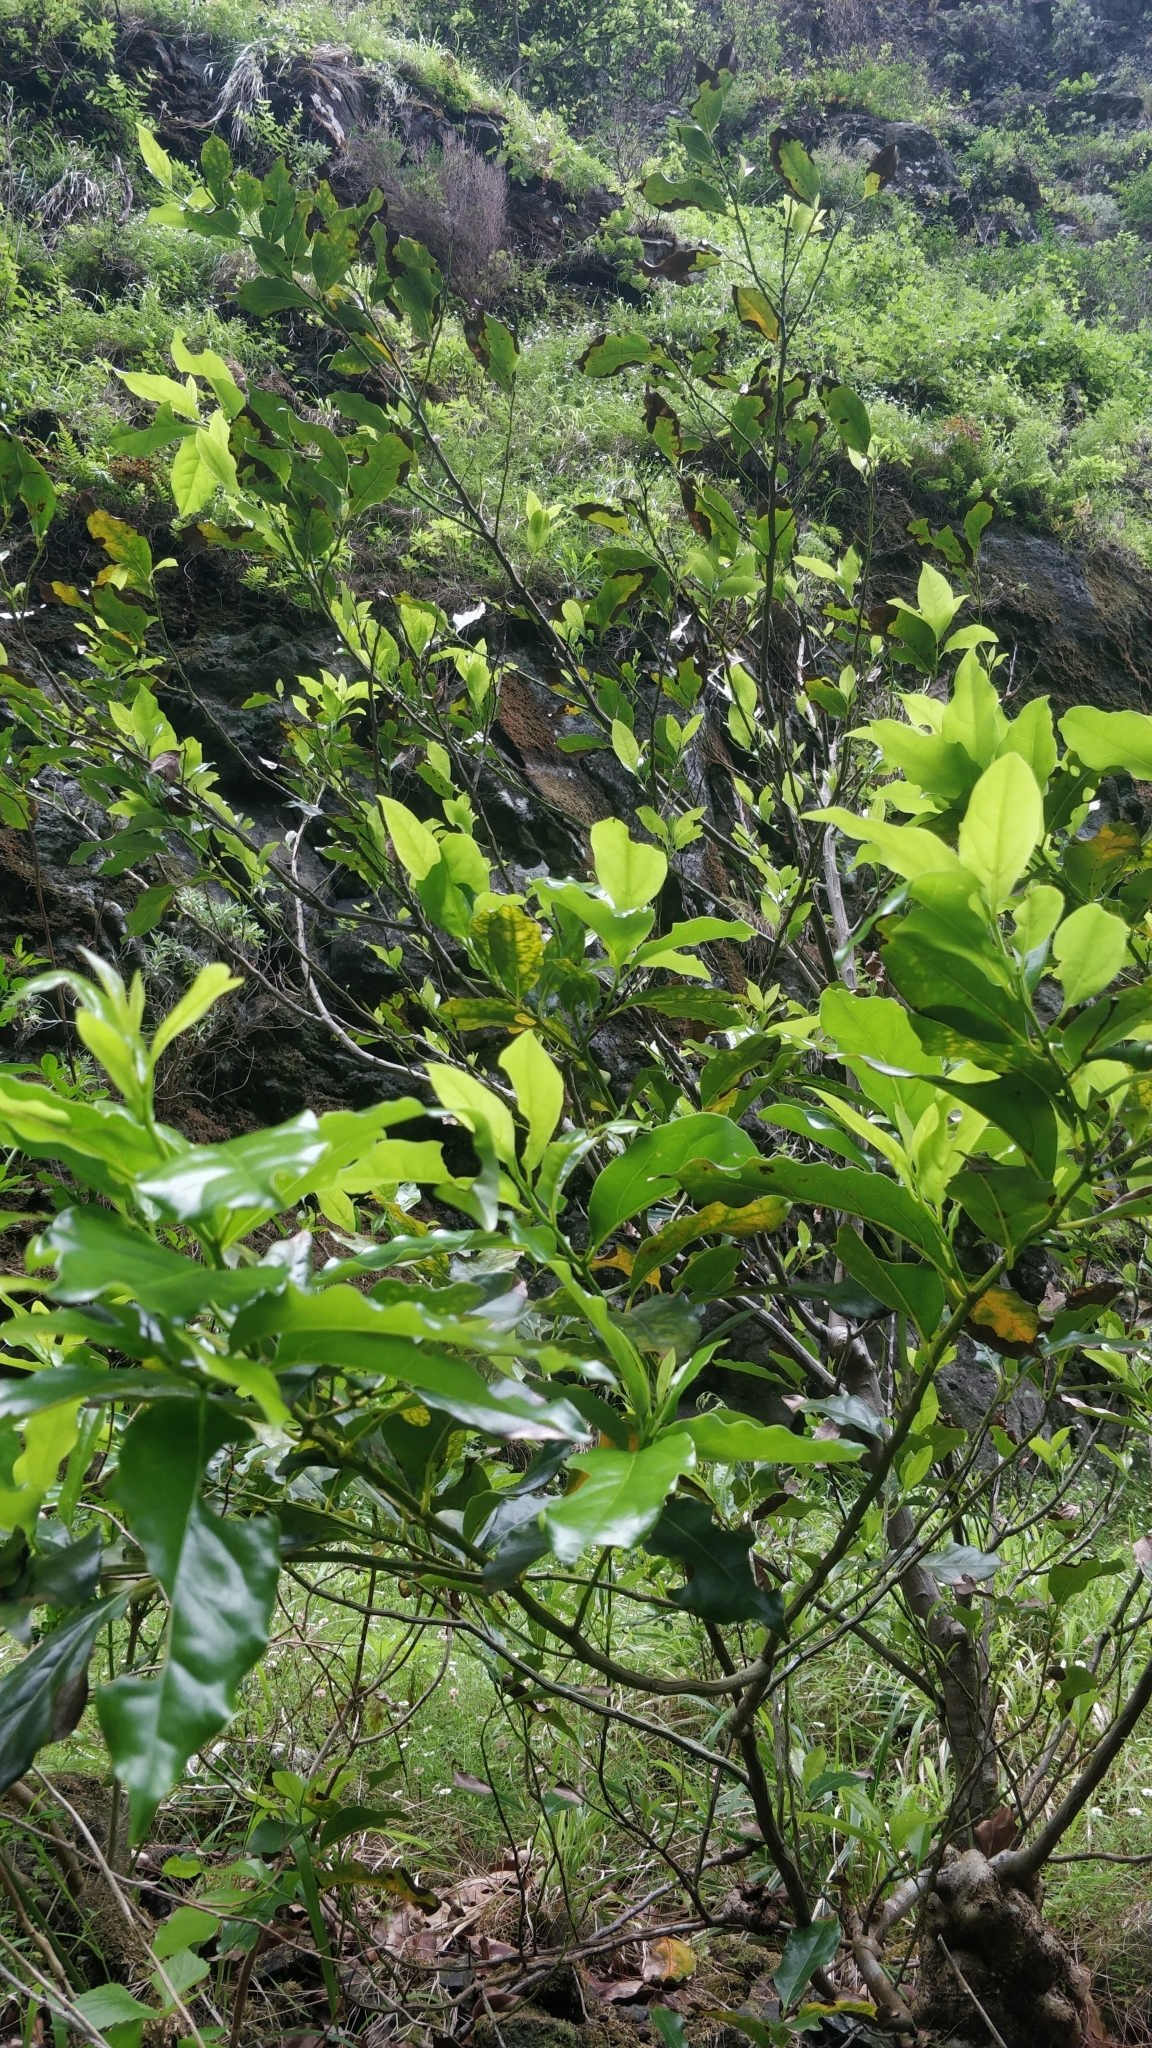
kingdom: Plantae
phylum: Tracheophyta
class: Magnoliopsida
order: Laurales
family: Lauraceae
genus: Mespilodaphne
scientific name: Mespilodaphne foetens
